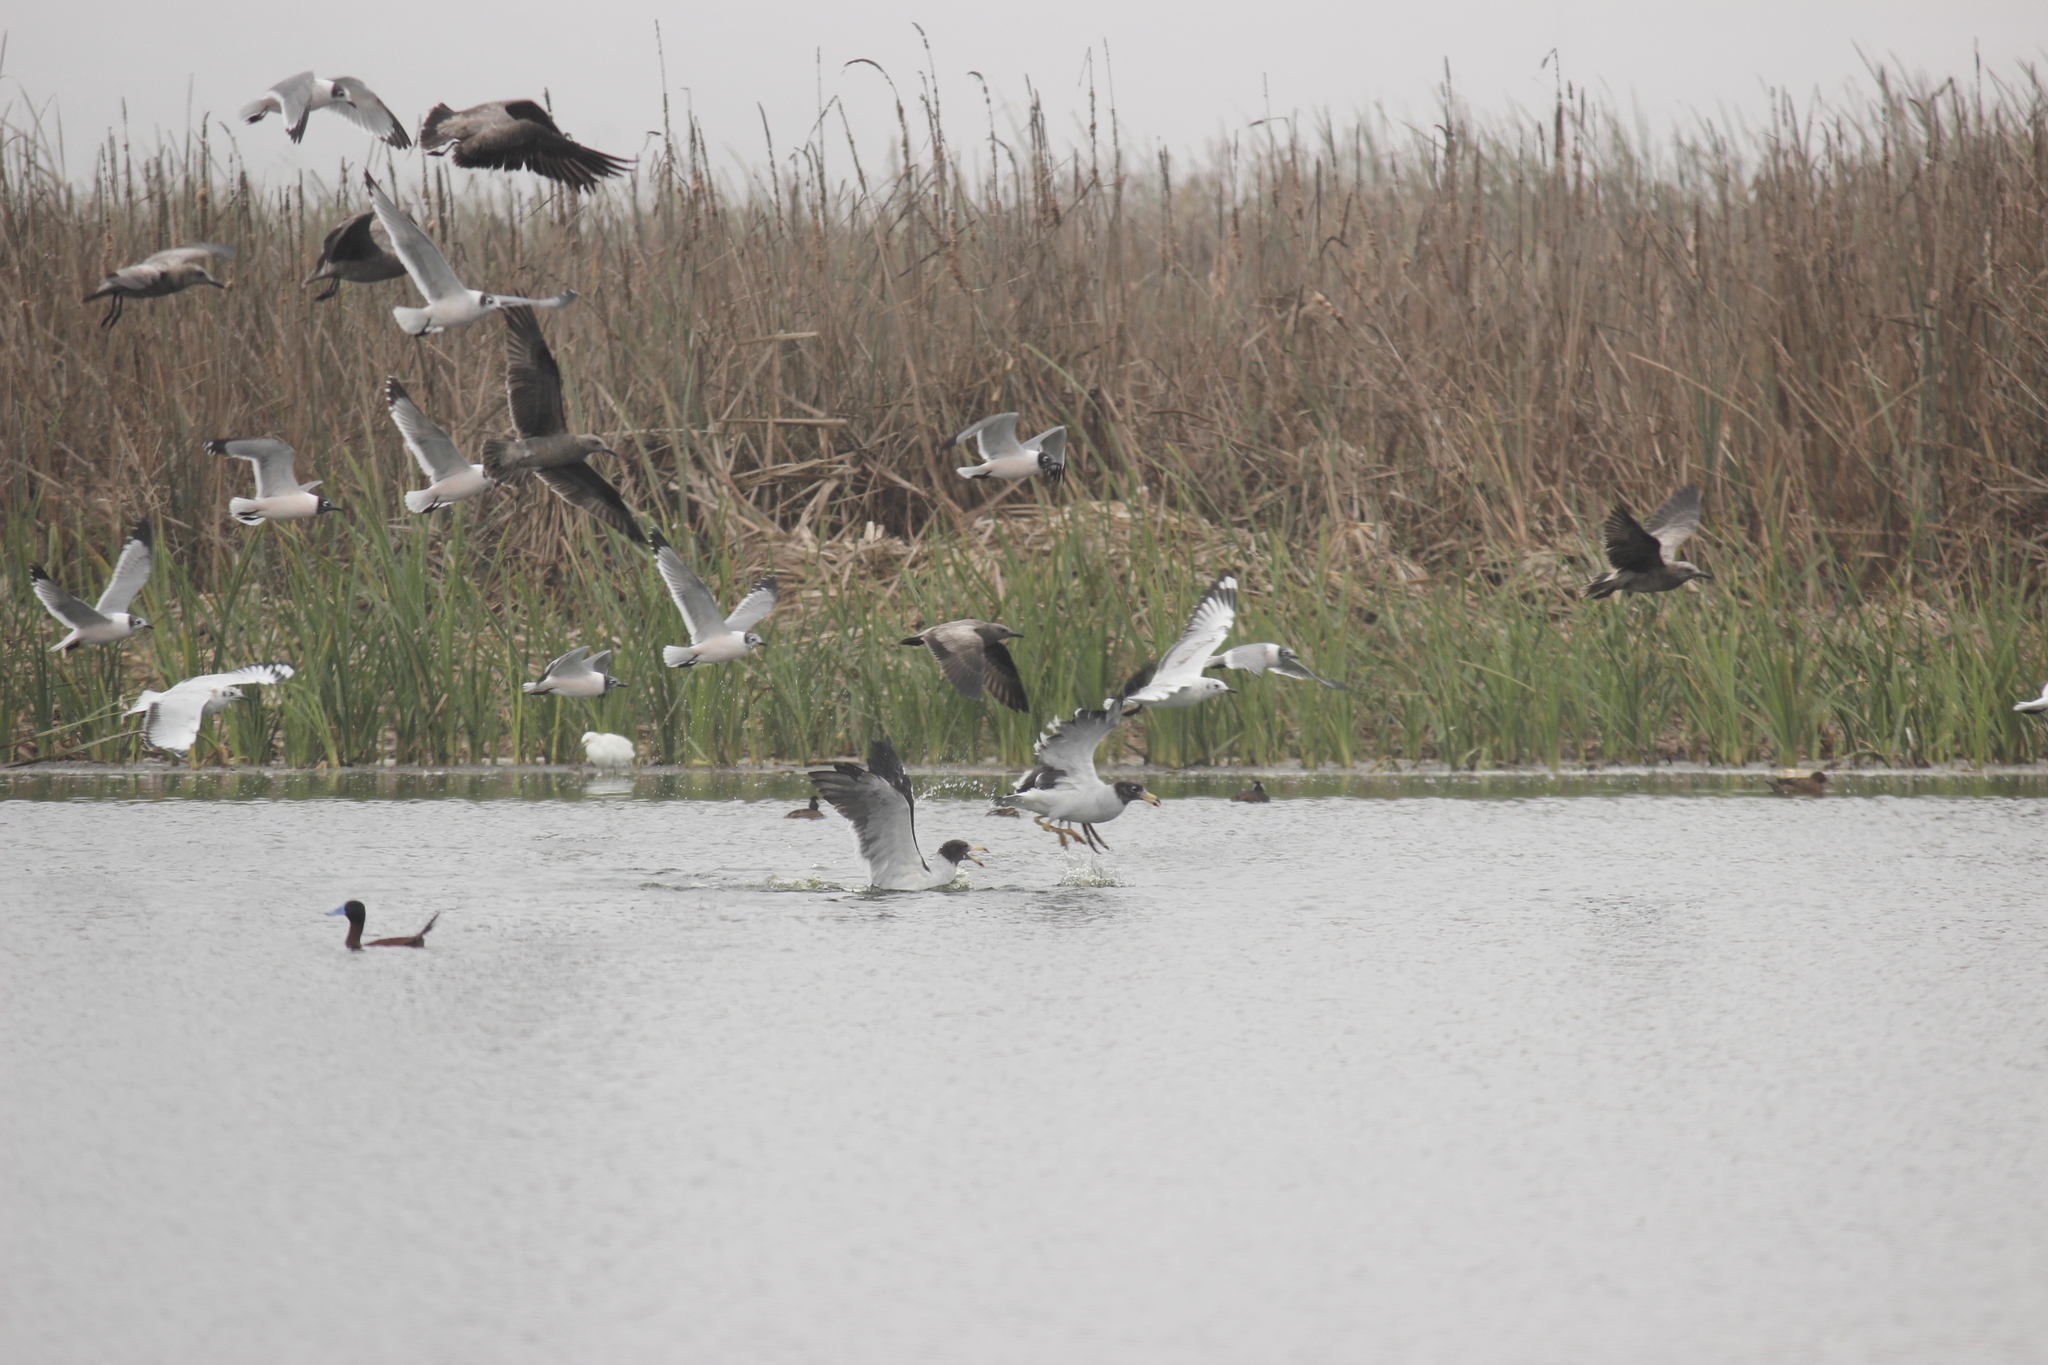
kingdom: Animalia
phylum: Chordata
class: Aves
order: Charadriiformes
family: Laridae
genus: Leucophaeus
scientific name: Leucophaeus modestus
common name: Gray gull
